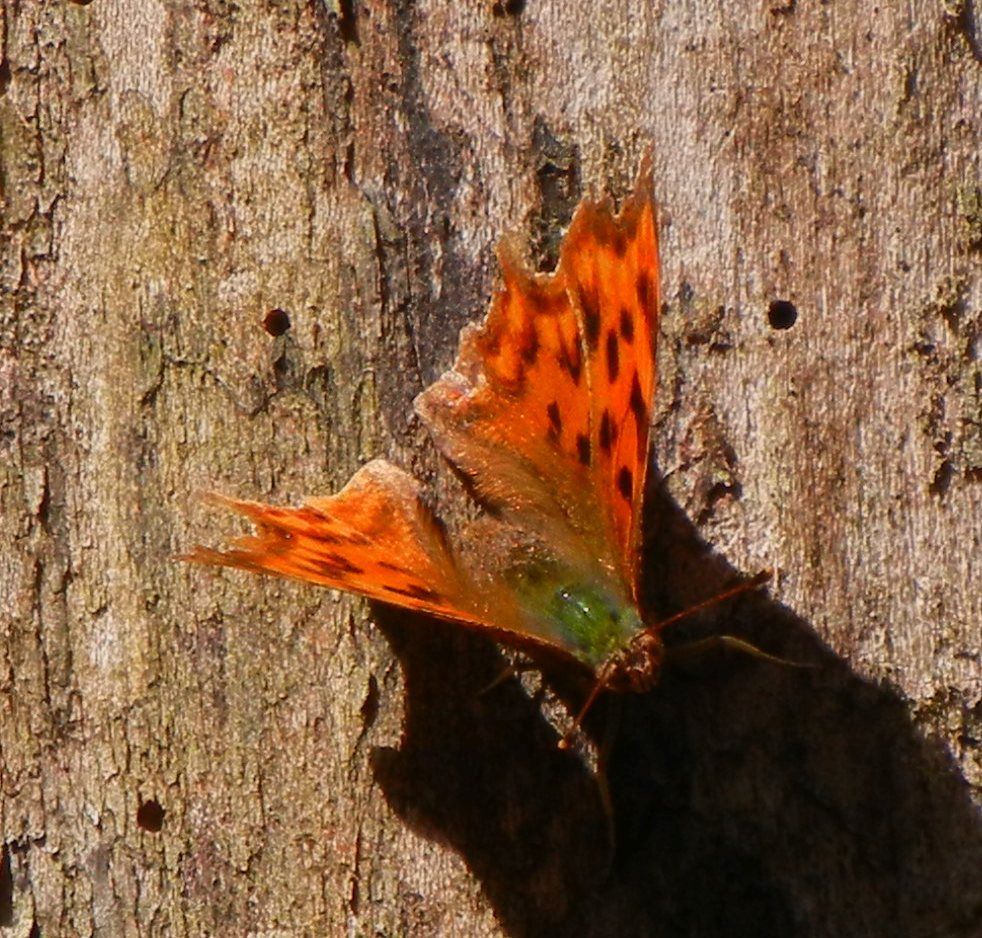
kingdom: Animalia
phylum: Arthropoda
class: Insecta
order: Lepidoptera
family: Nymphalidae
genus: Polygonia
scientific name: Polygonia c-album
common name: Comma
